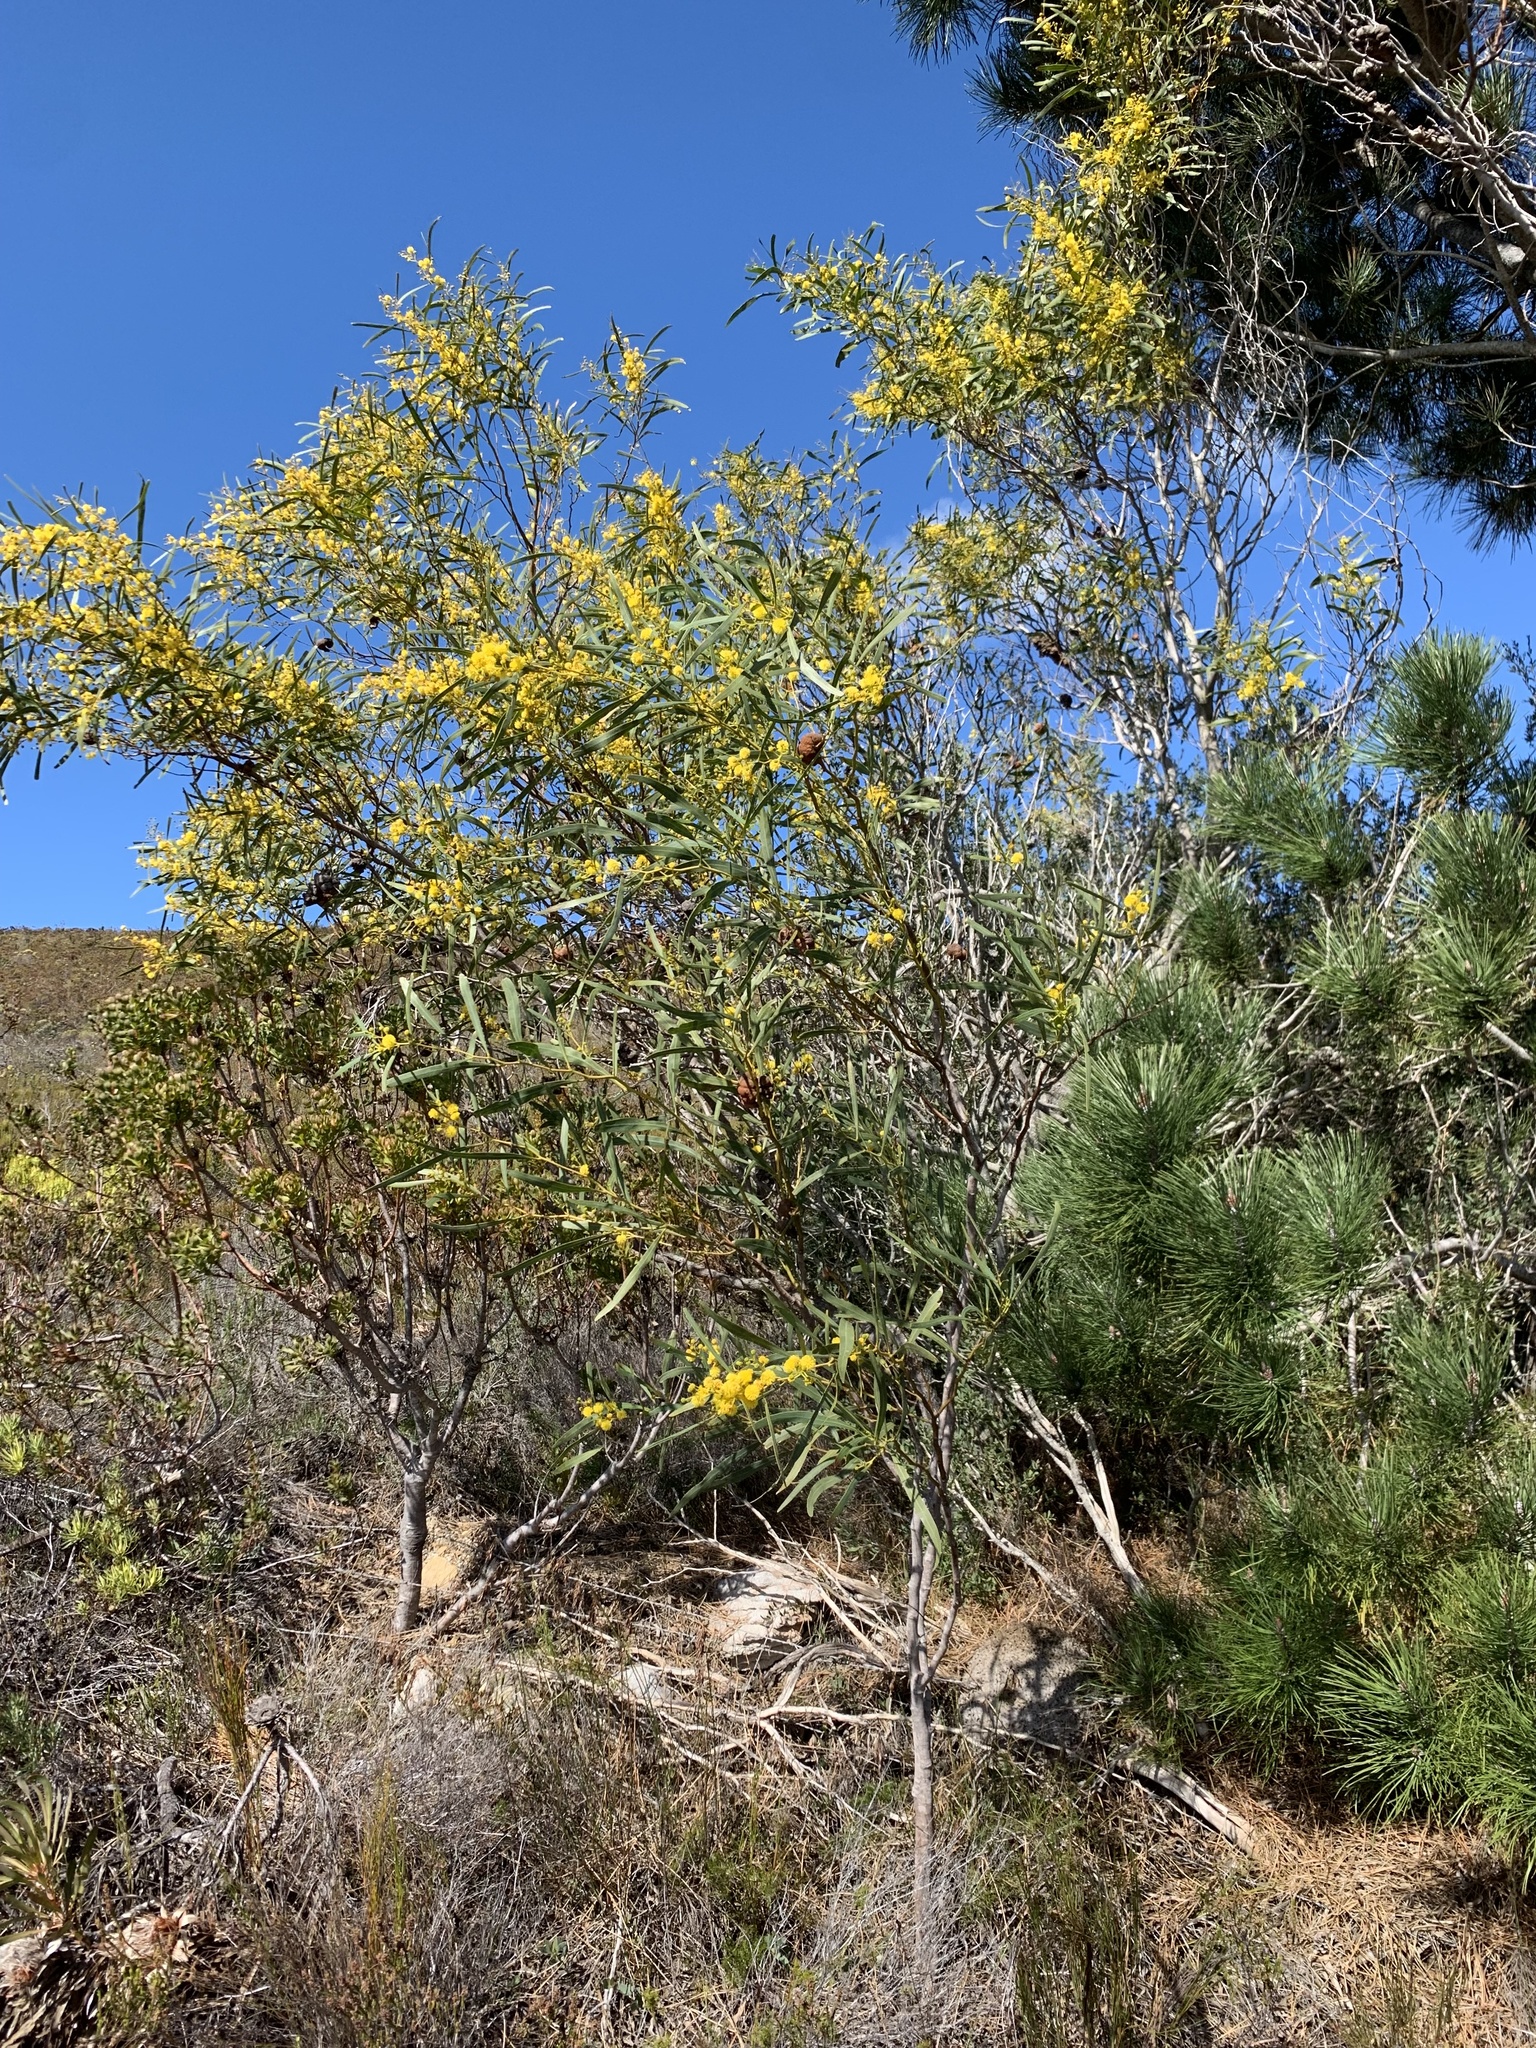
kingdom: Plantae
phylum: Tracheophyta
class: Magnoliopsida
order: Fabales
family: Fabaceae
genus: Acacia
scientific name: Acacia saligna
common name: Orange wattle
